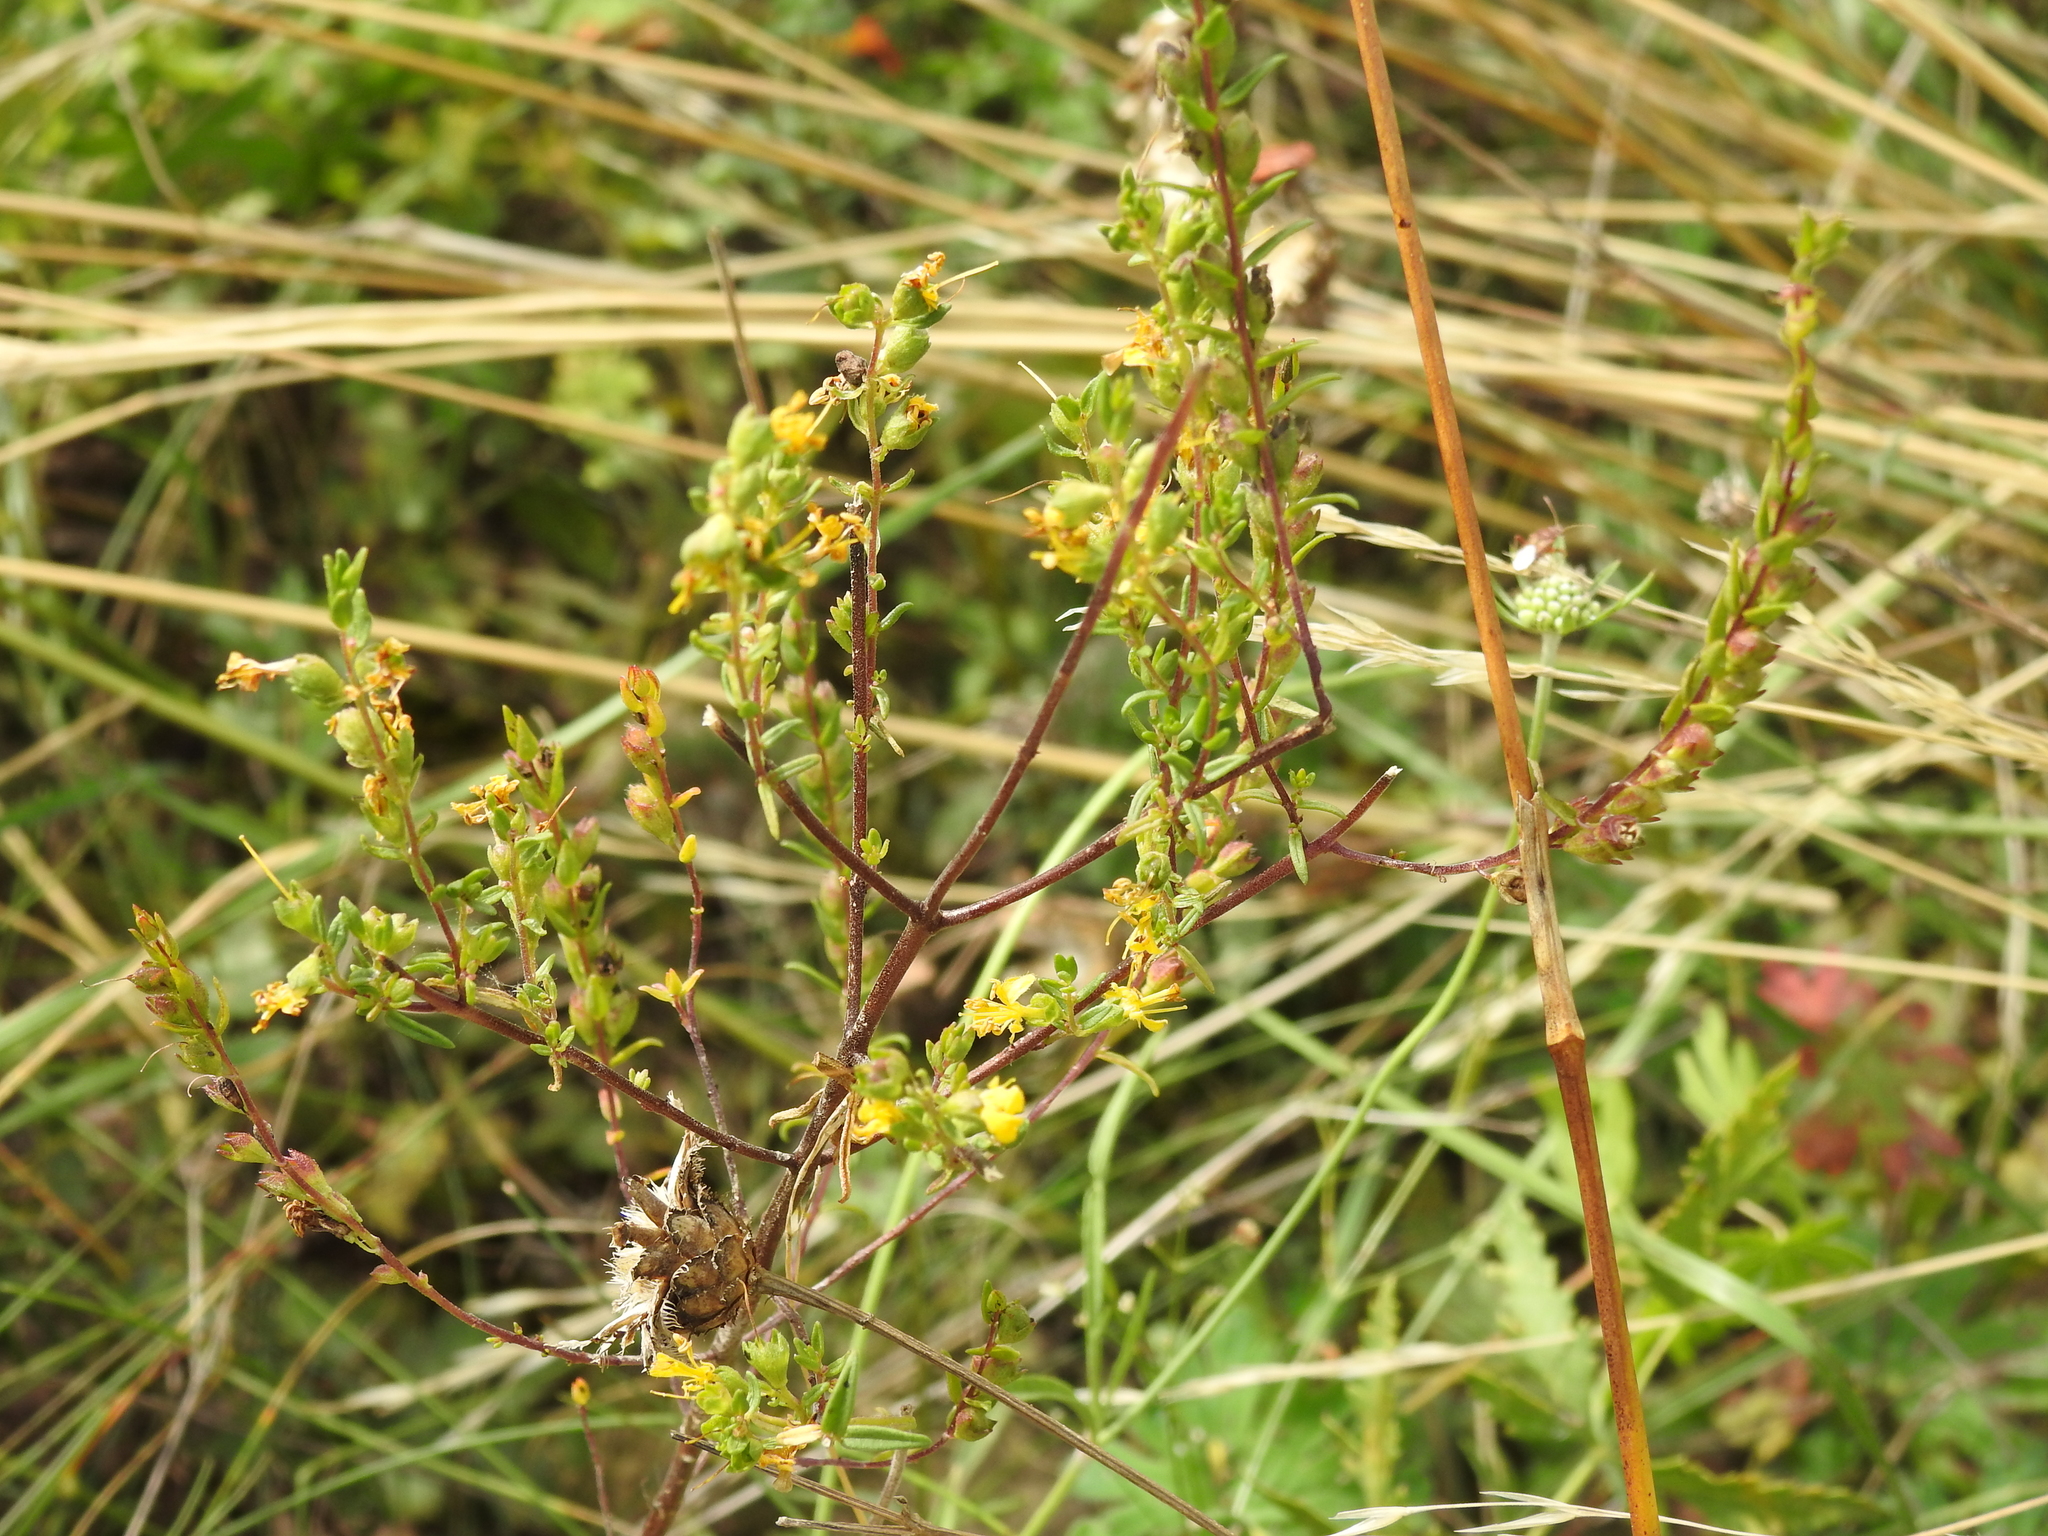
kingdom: Plantae
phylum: Tracheophyta
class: Magnoliopsida
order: Lamiales
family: Orobanchaceae
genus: Odontites
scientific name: Odontites luteus
